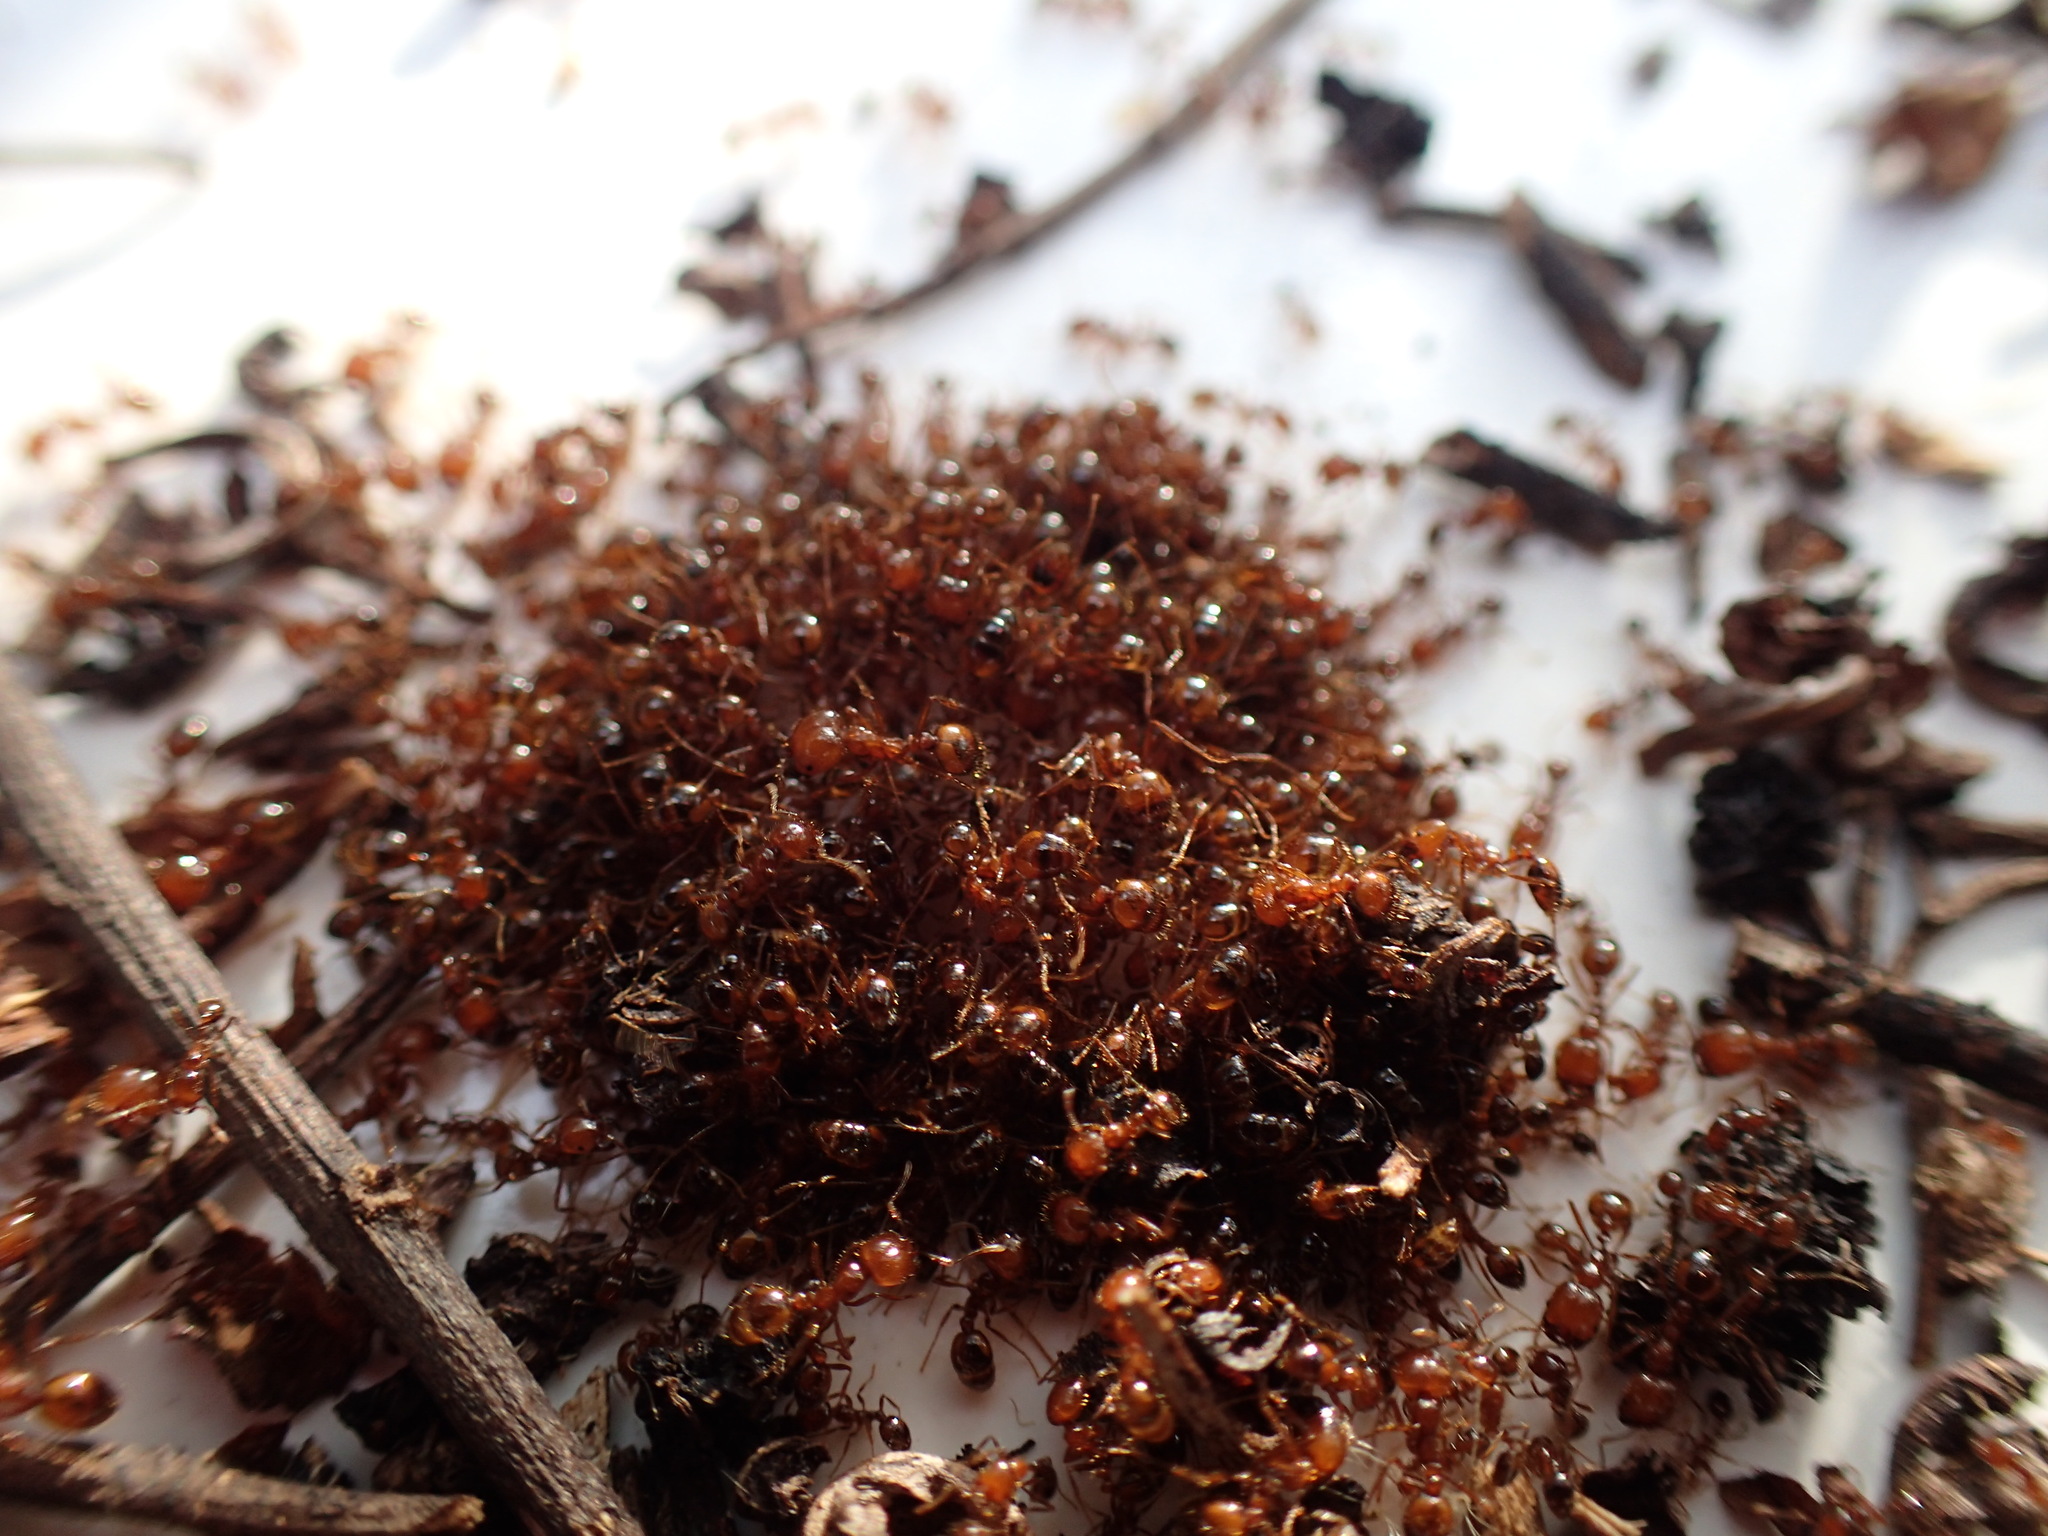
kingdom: Animalia
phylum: Arthropoda
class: Insecta
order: Hymenoptera
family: Formicidae
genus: Solenopsis
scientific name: Solenopsis geminata
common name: Tropical fire ant
